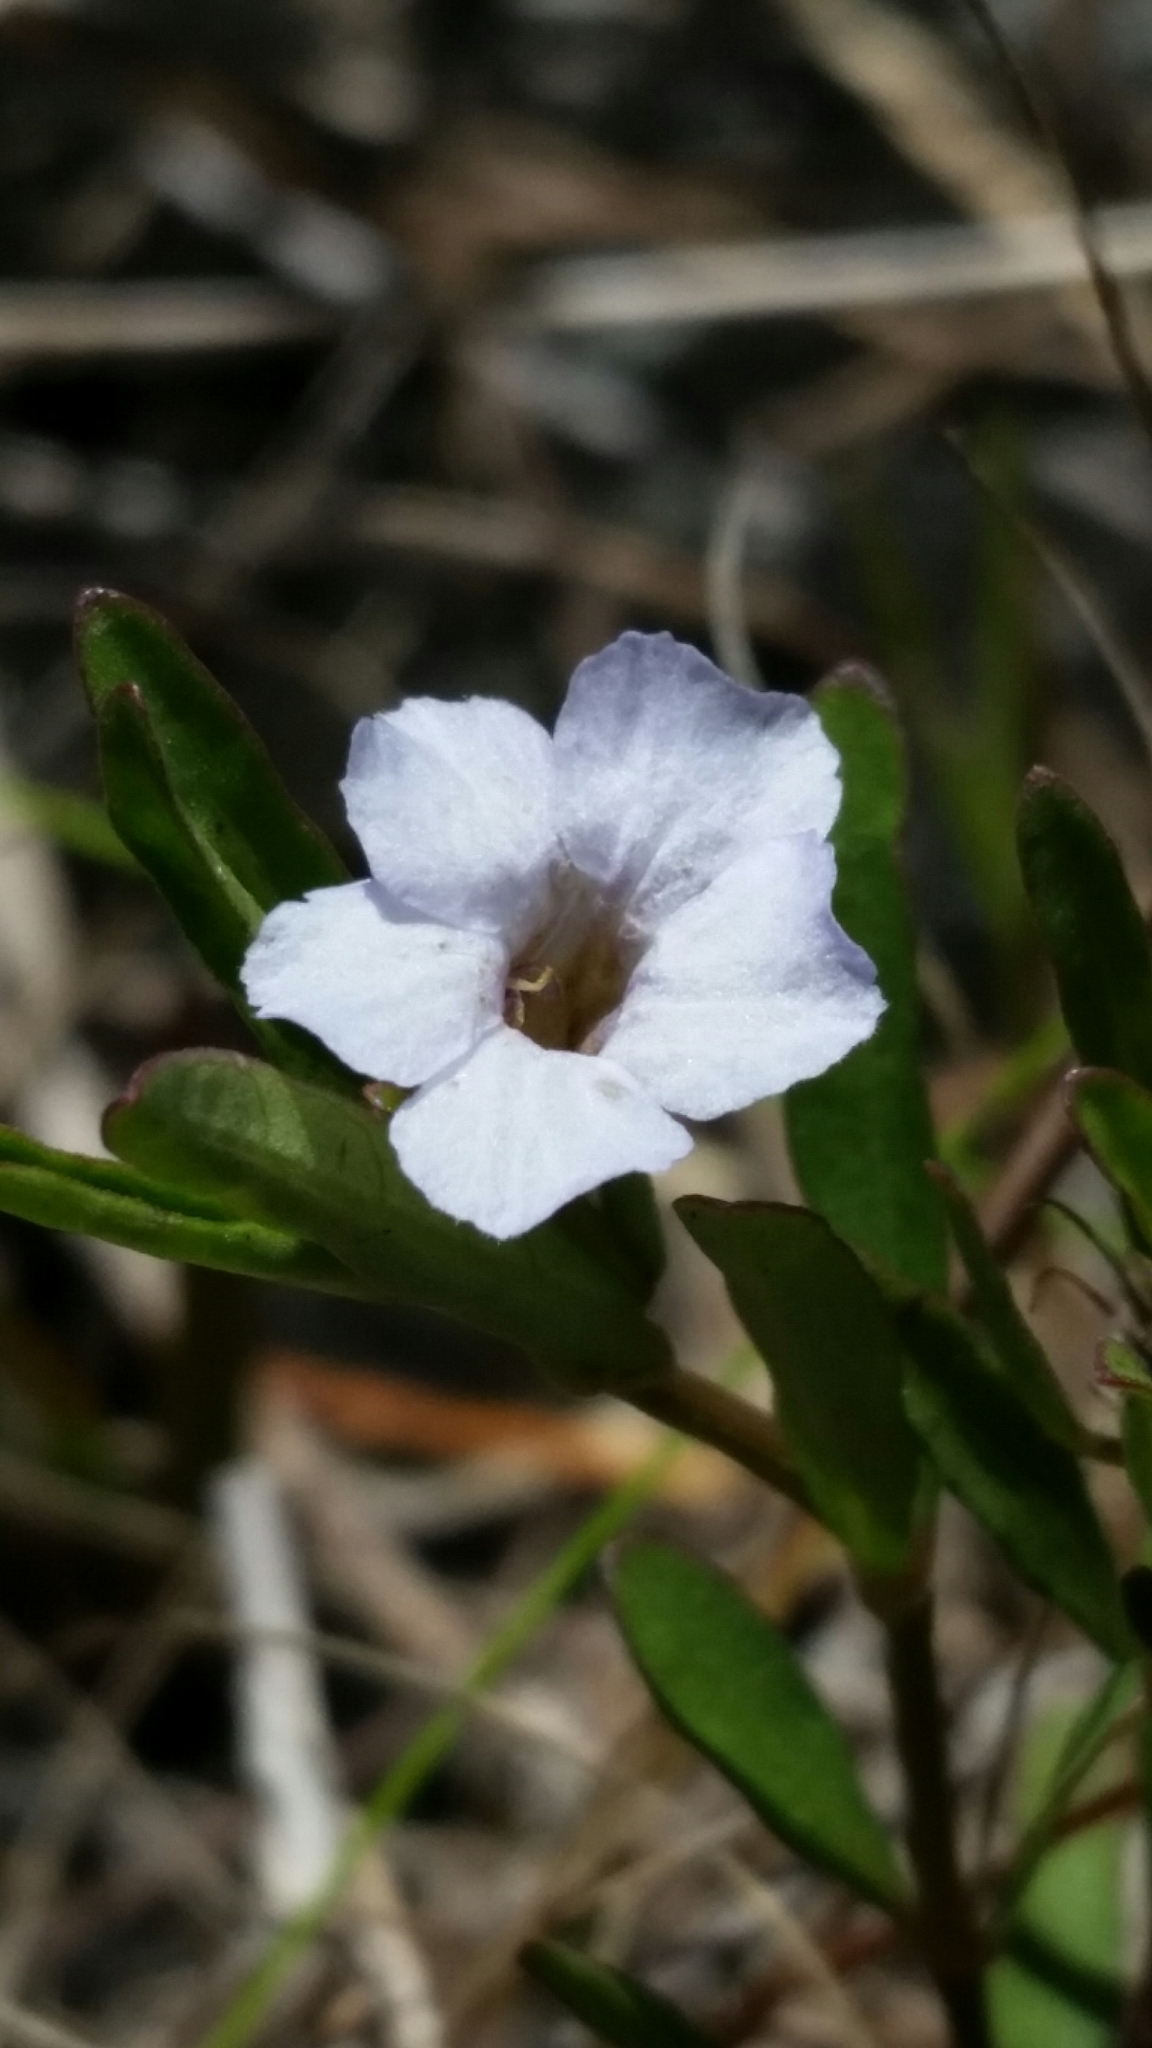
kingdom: Plantae
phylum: Tracheophyta
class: Magnoliopsida
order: Lamiales
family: Acanthaceae
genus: Dyschoriste
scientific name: Dyschoriste angusta
